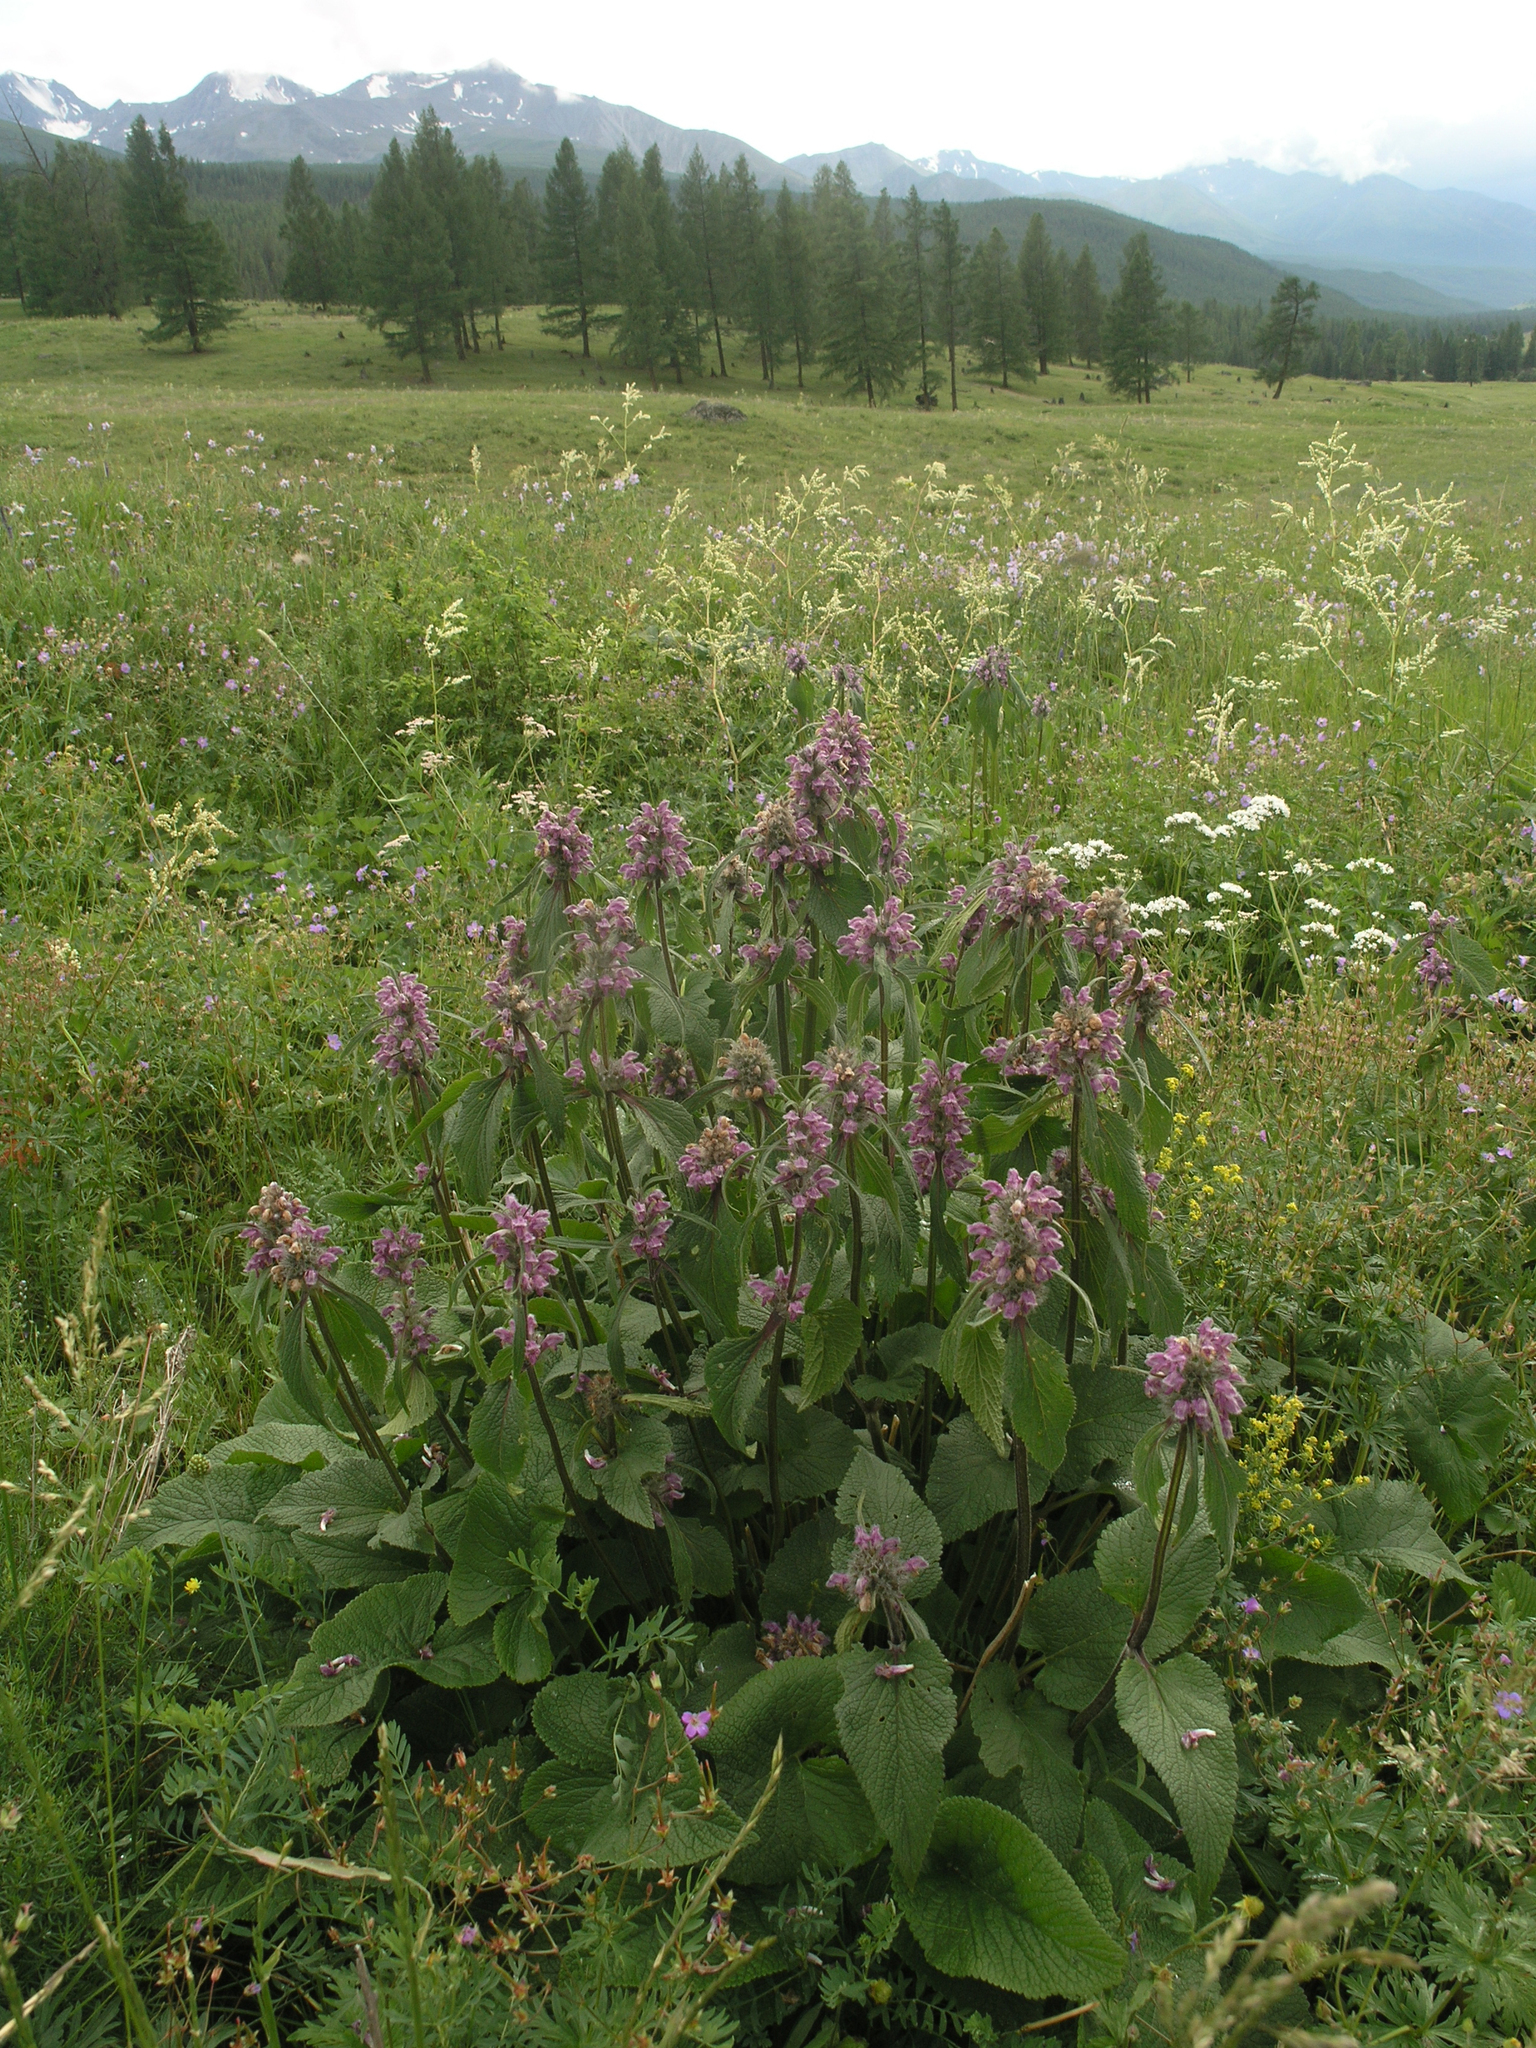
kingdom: Plantae
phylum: Tracheophyta
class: Magnoliopsida
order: Lamiales
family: Lamiaceae
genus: Phlomoides
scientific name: Phlomoides alpina
